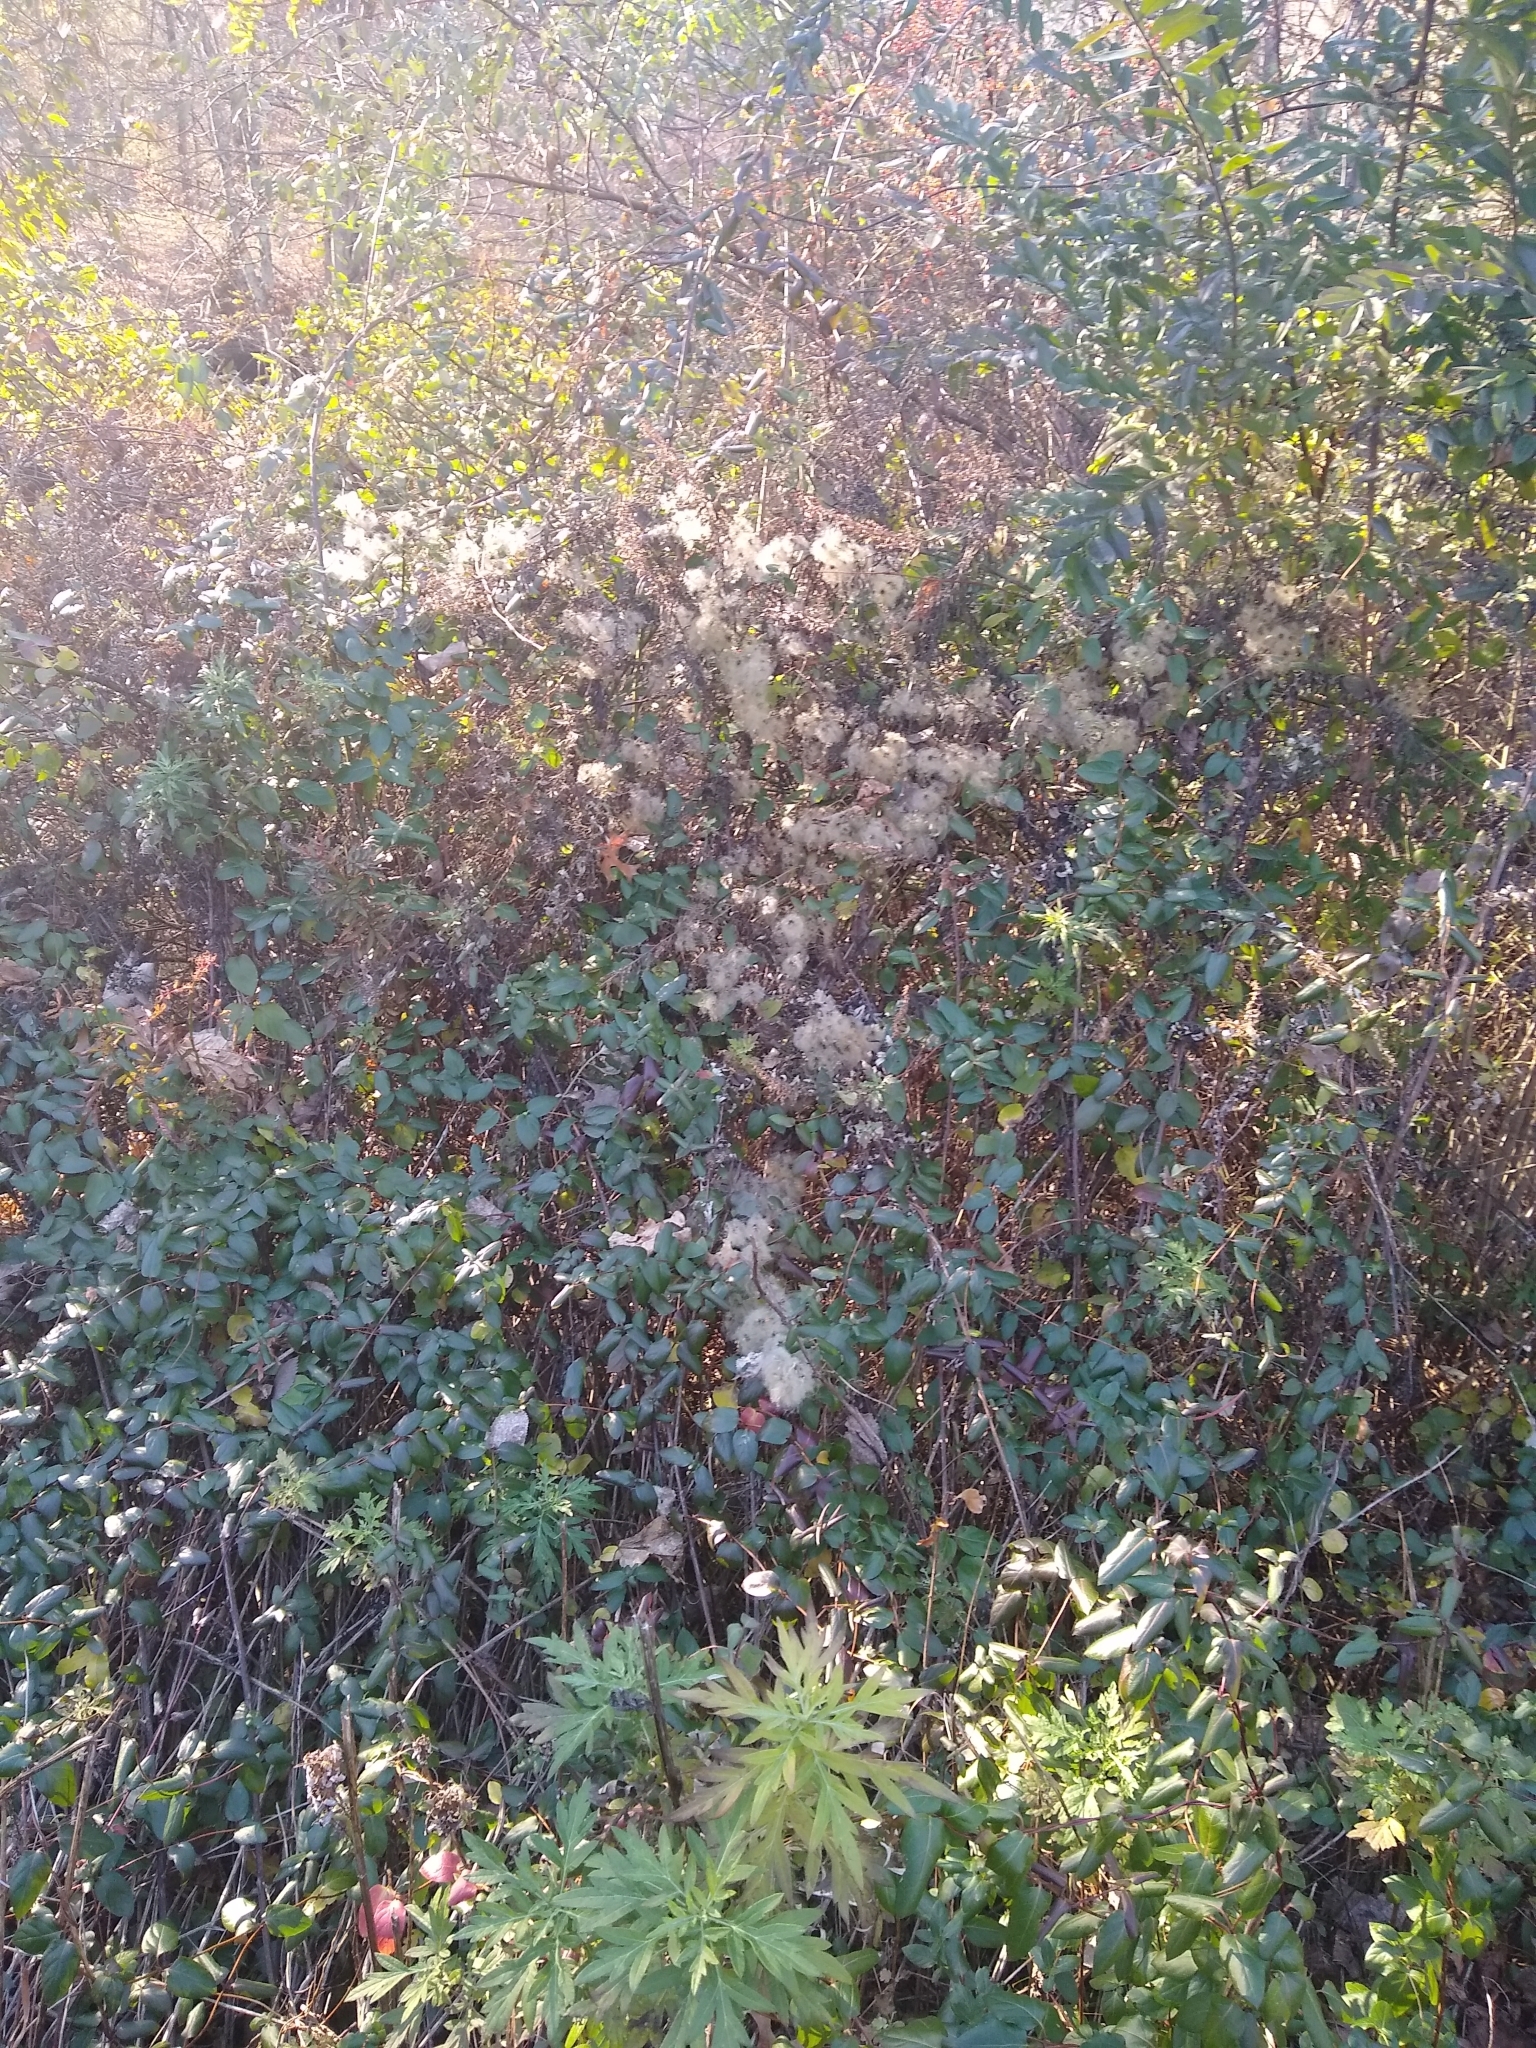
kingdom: Plantae
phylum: Tracheophyta
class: Magnoliopsida
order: Ranunculales
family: Ranunculaceae
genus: Clematis
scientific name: Clematis virginiana
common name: Virgin's-bower
